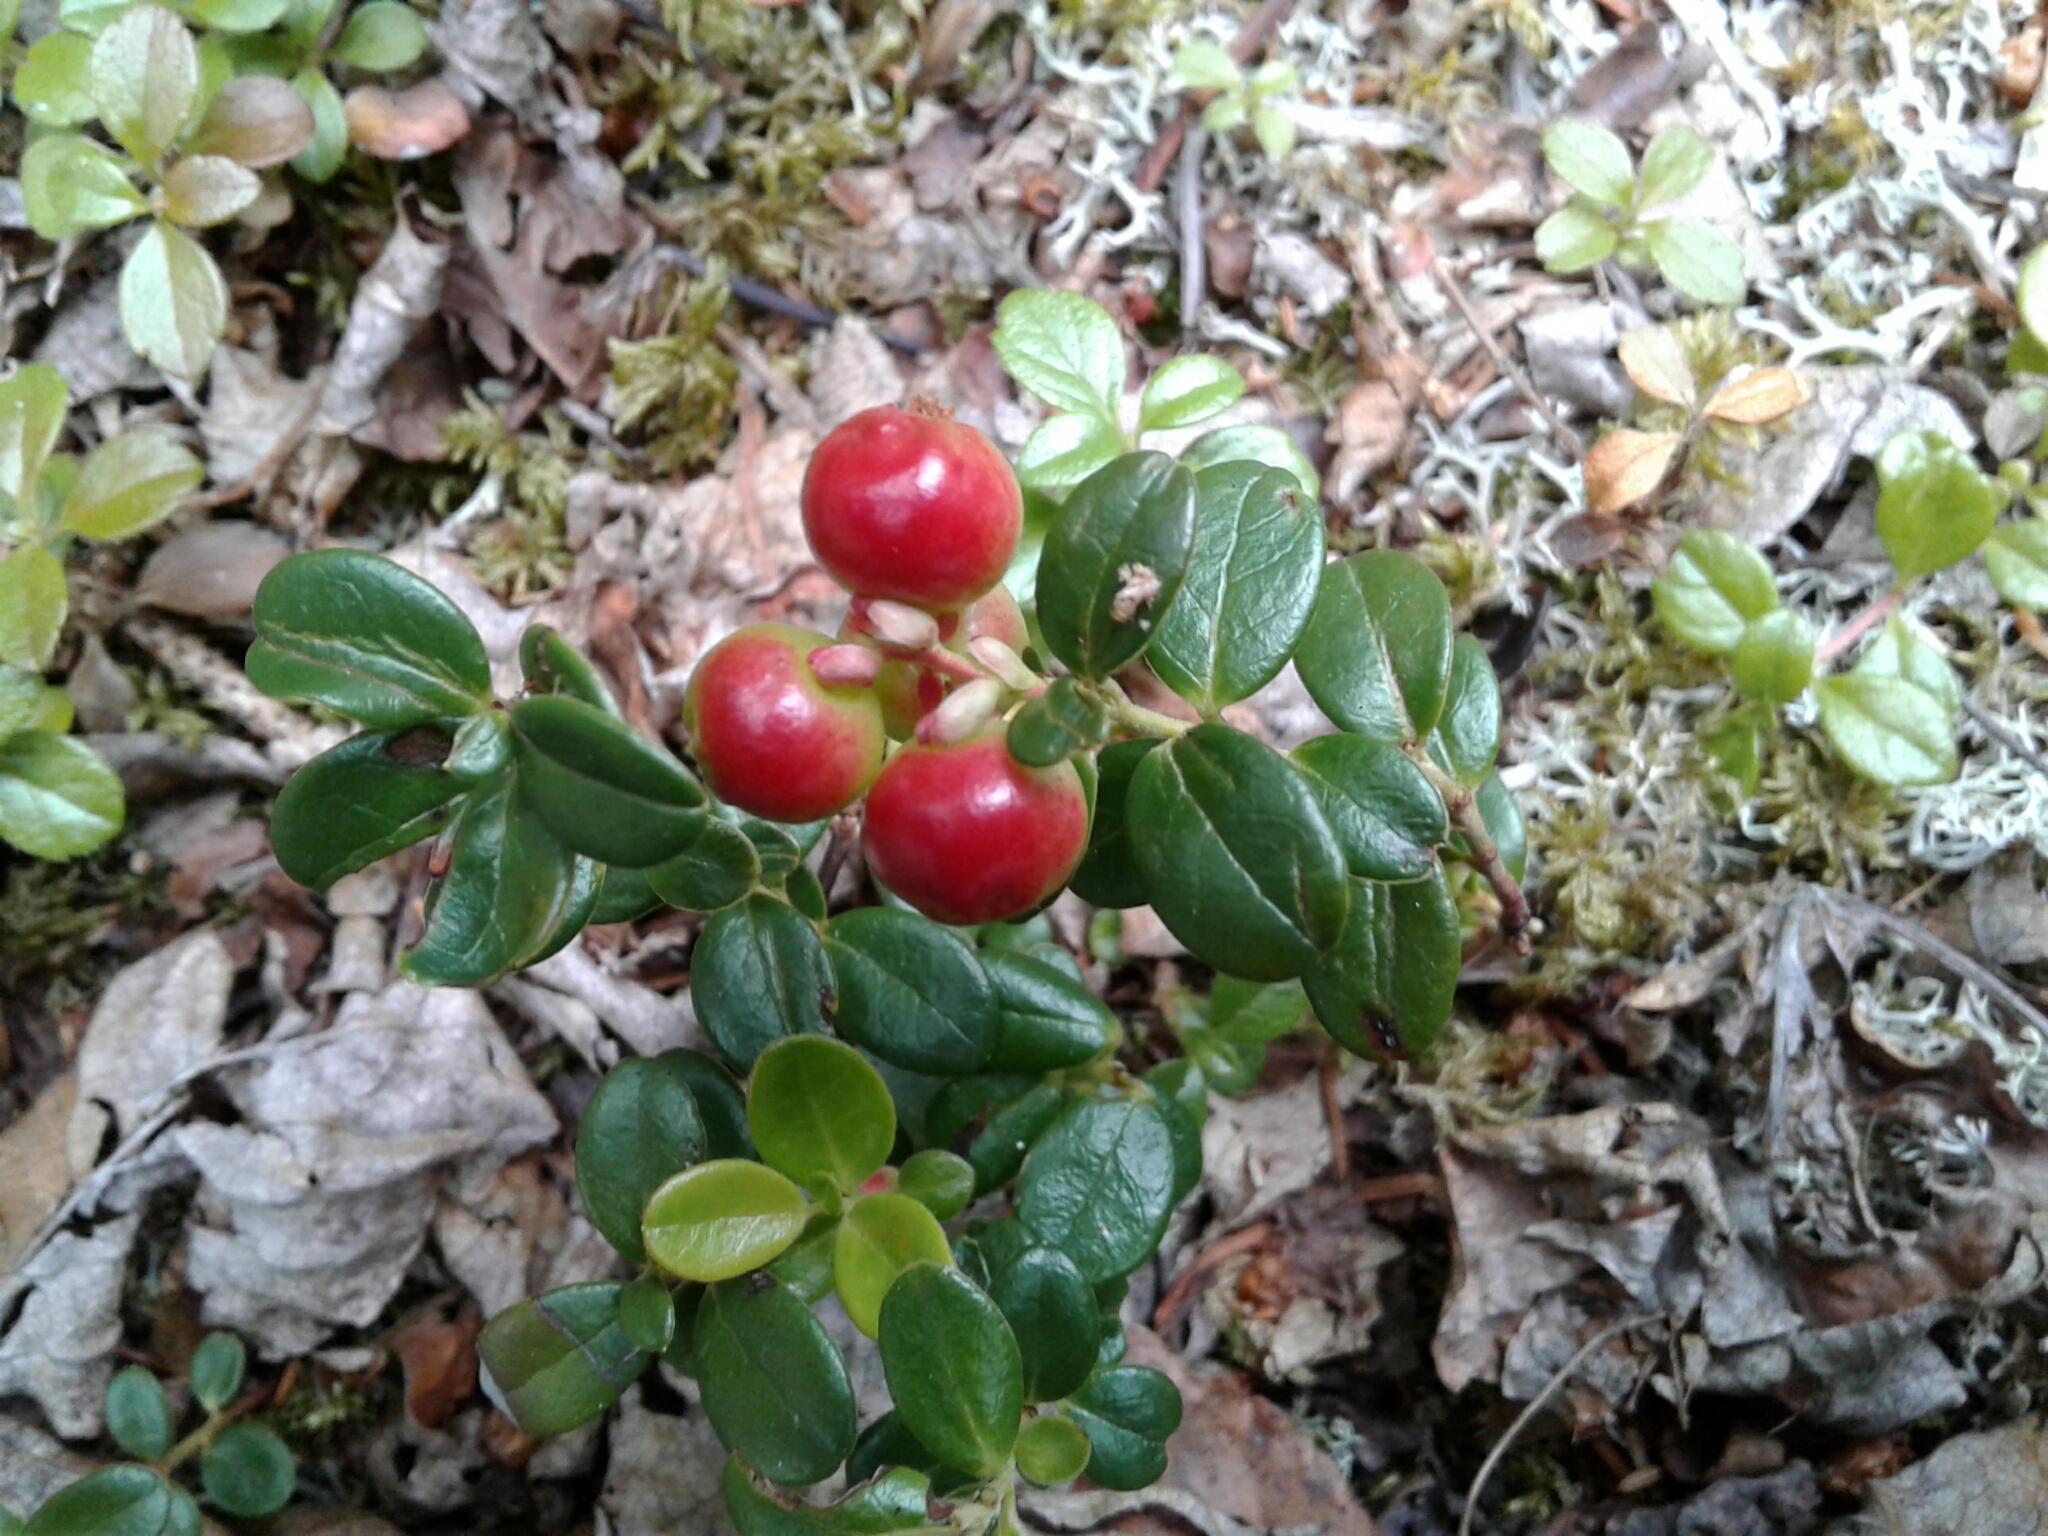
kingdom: Plantae
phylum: Tracheophyta
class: Magnoliopsida
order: Ericales
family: Ericaceae
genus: Vaccinium
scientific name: Vaccinium vitis-idaea
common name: Cowberry
